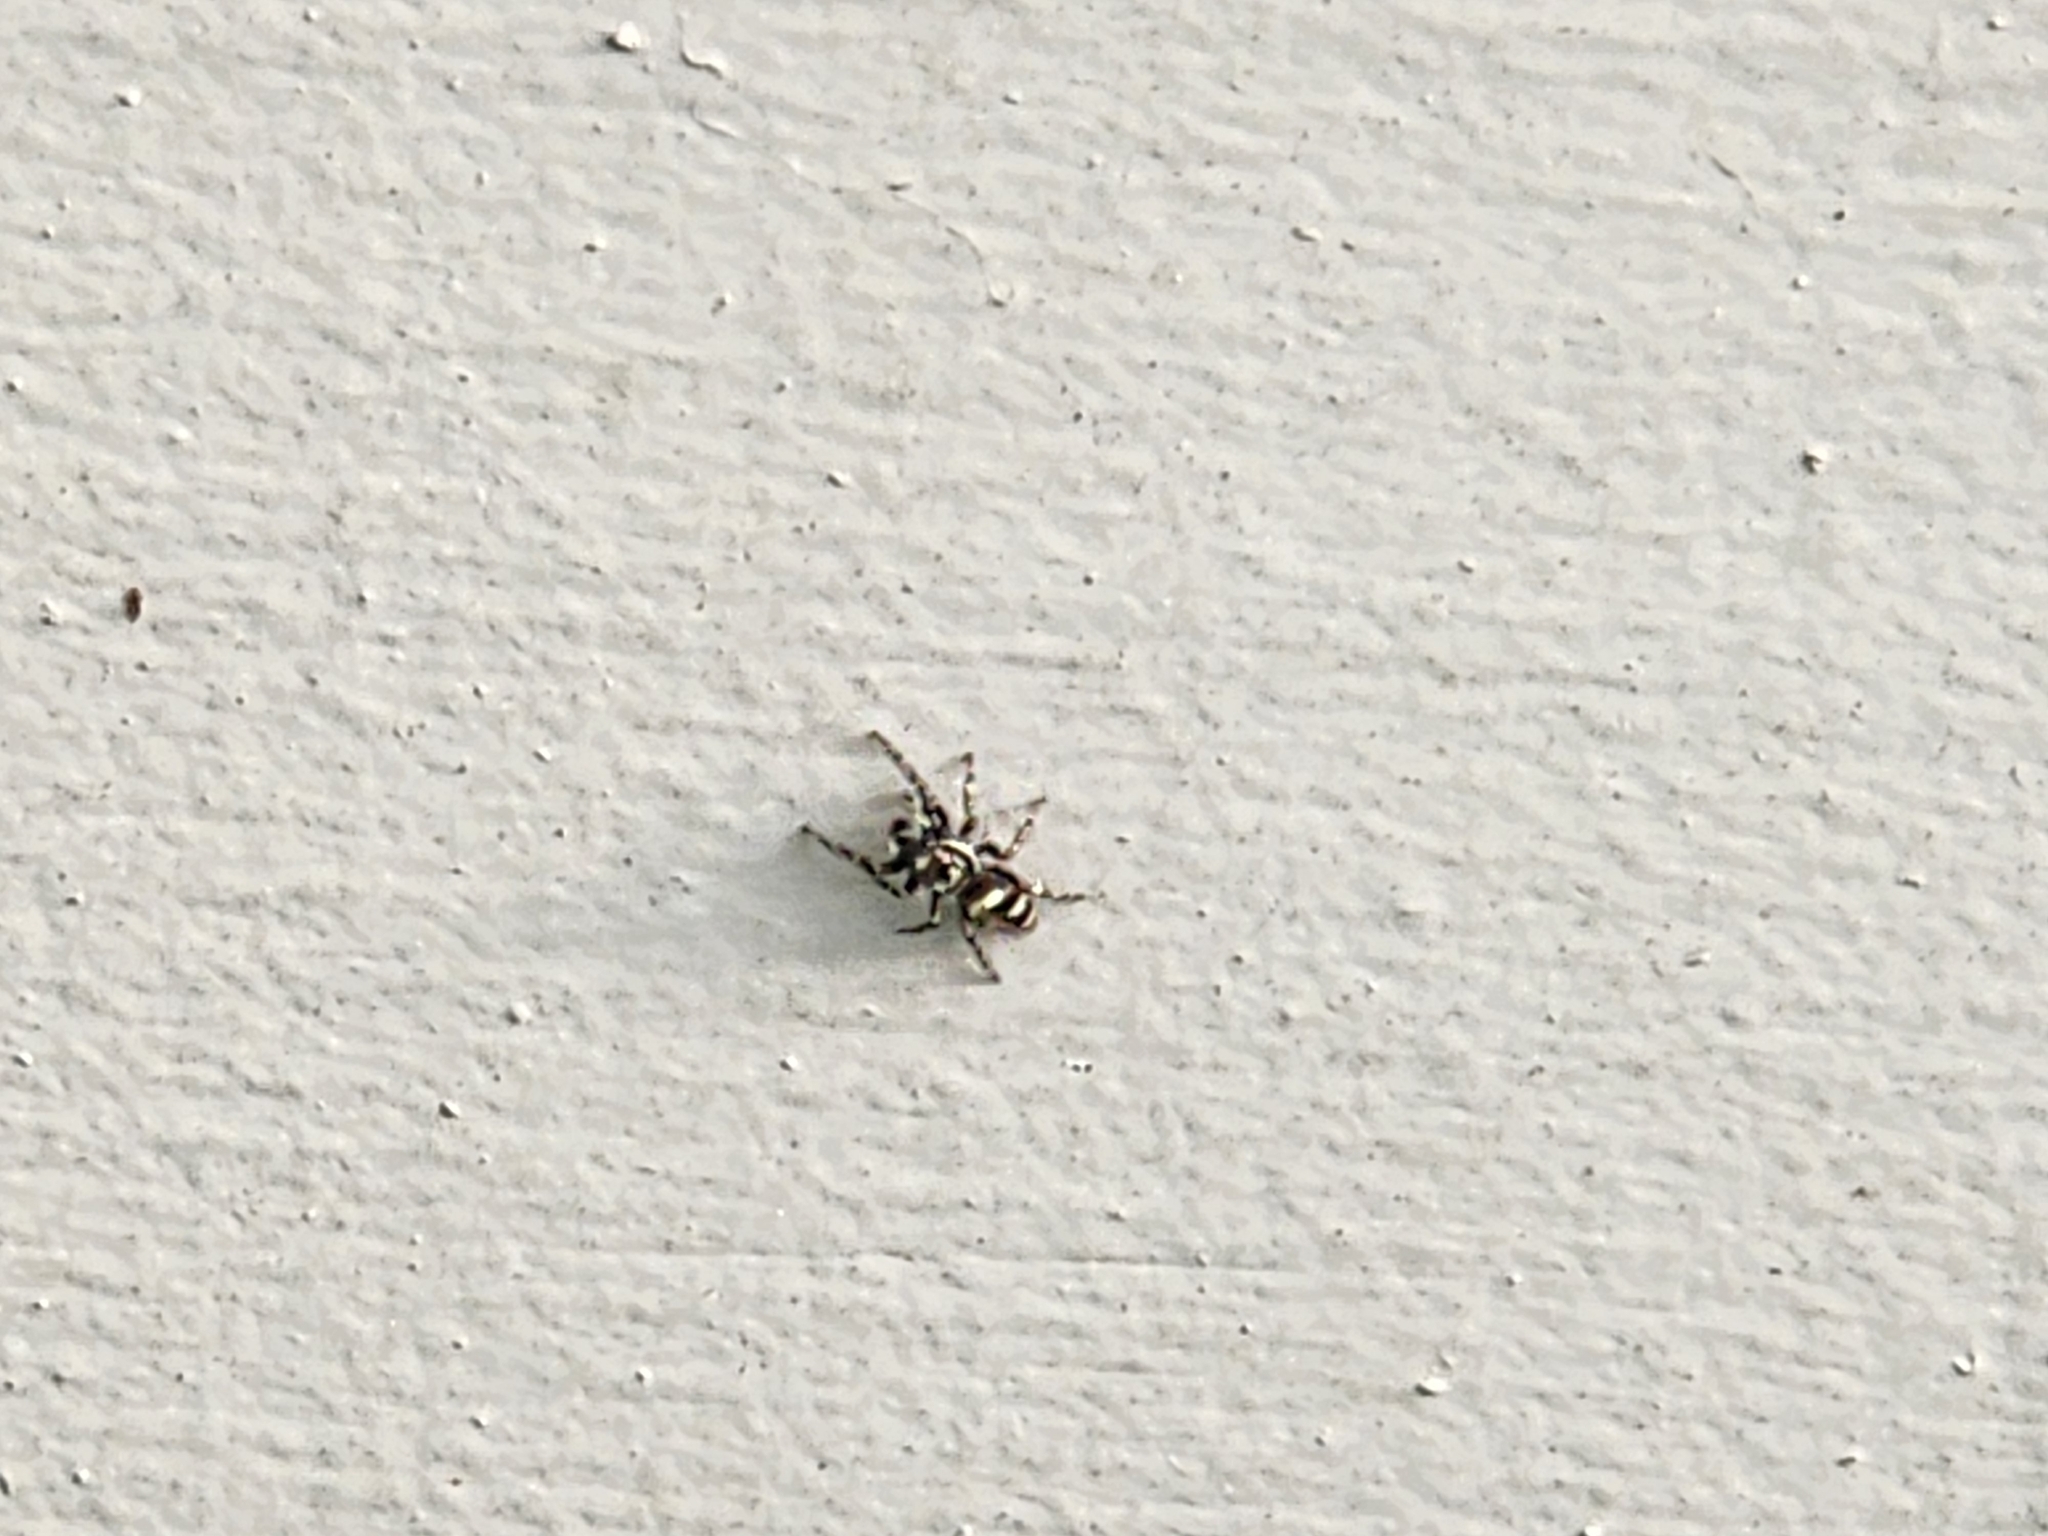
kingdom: Animalia
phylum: Arthropoda
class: Arachnida
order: Araneae
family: Salticidae
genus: Salticus
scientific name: Salticus scenicus
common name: Zebra jumper
